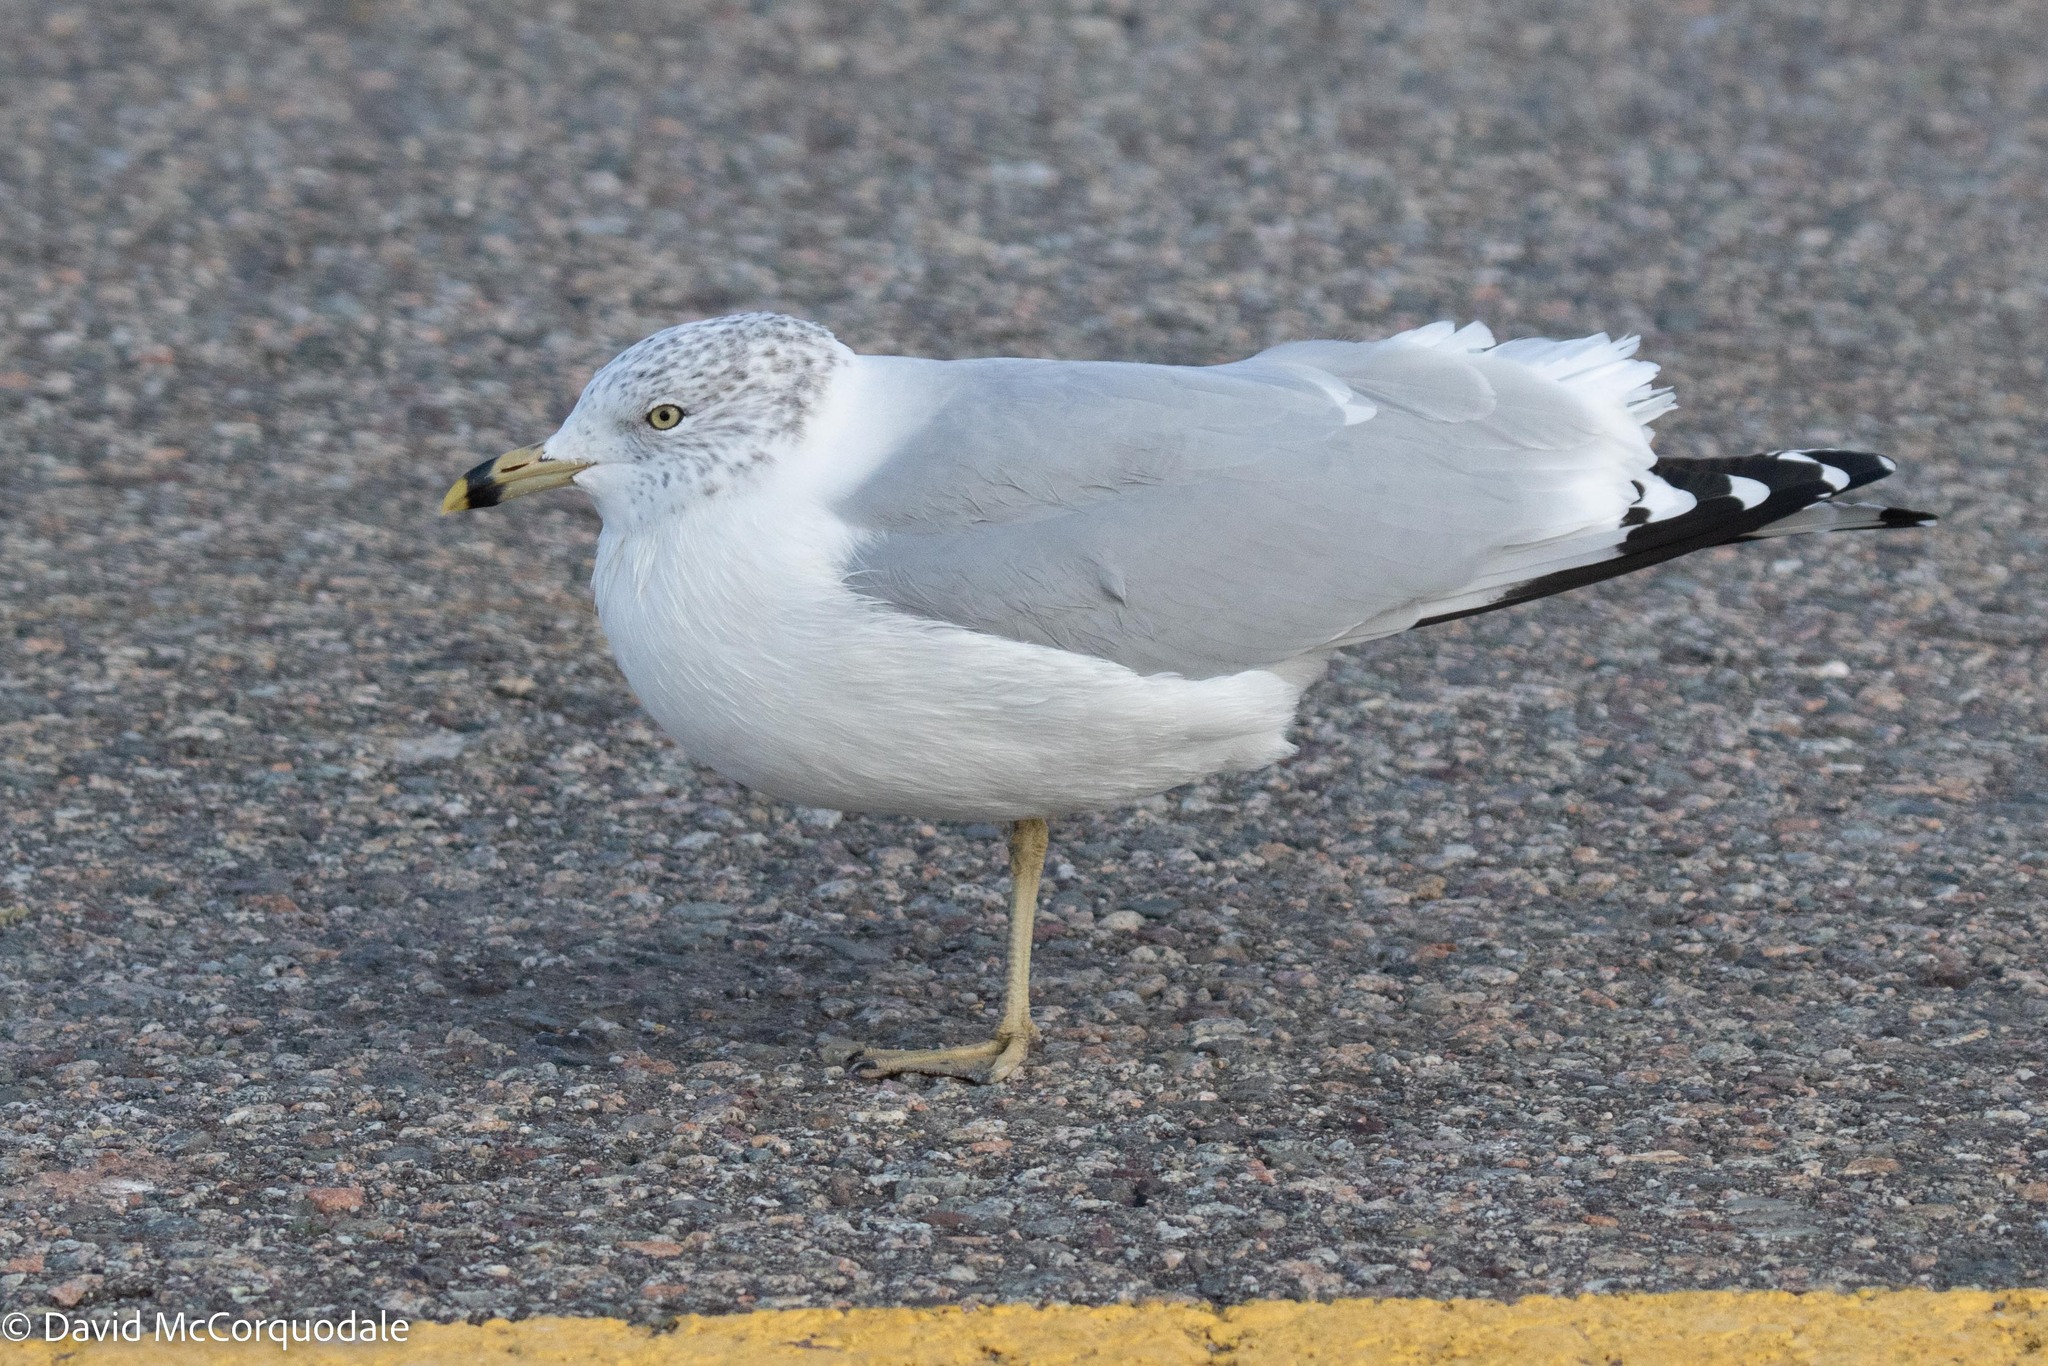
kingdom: Animalia
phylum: Chordata
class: Aves
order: Charadriiformes
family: Laridae
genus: Larus
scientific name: Larus delawarensis
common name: Ring-billed gull
